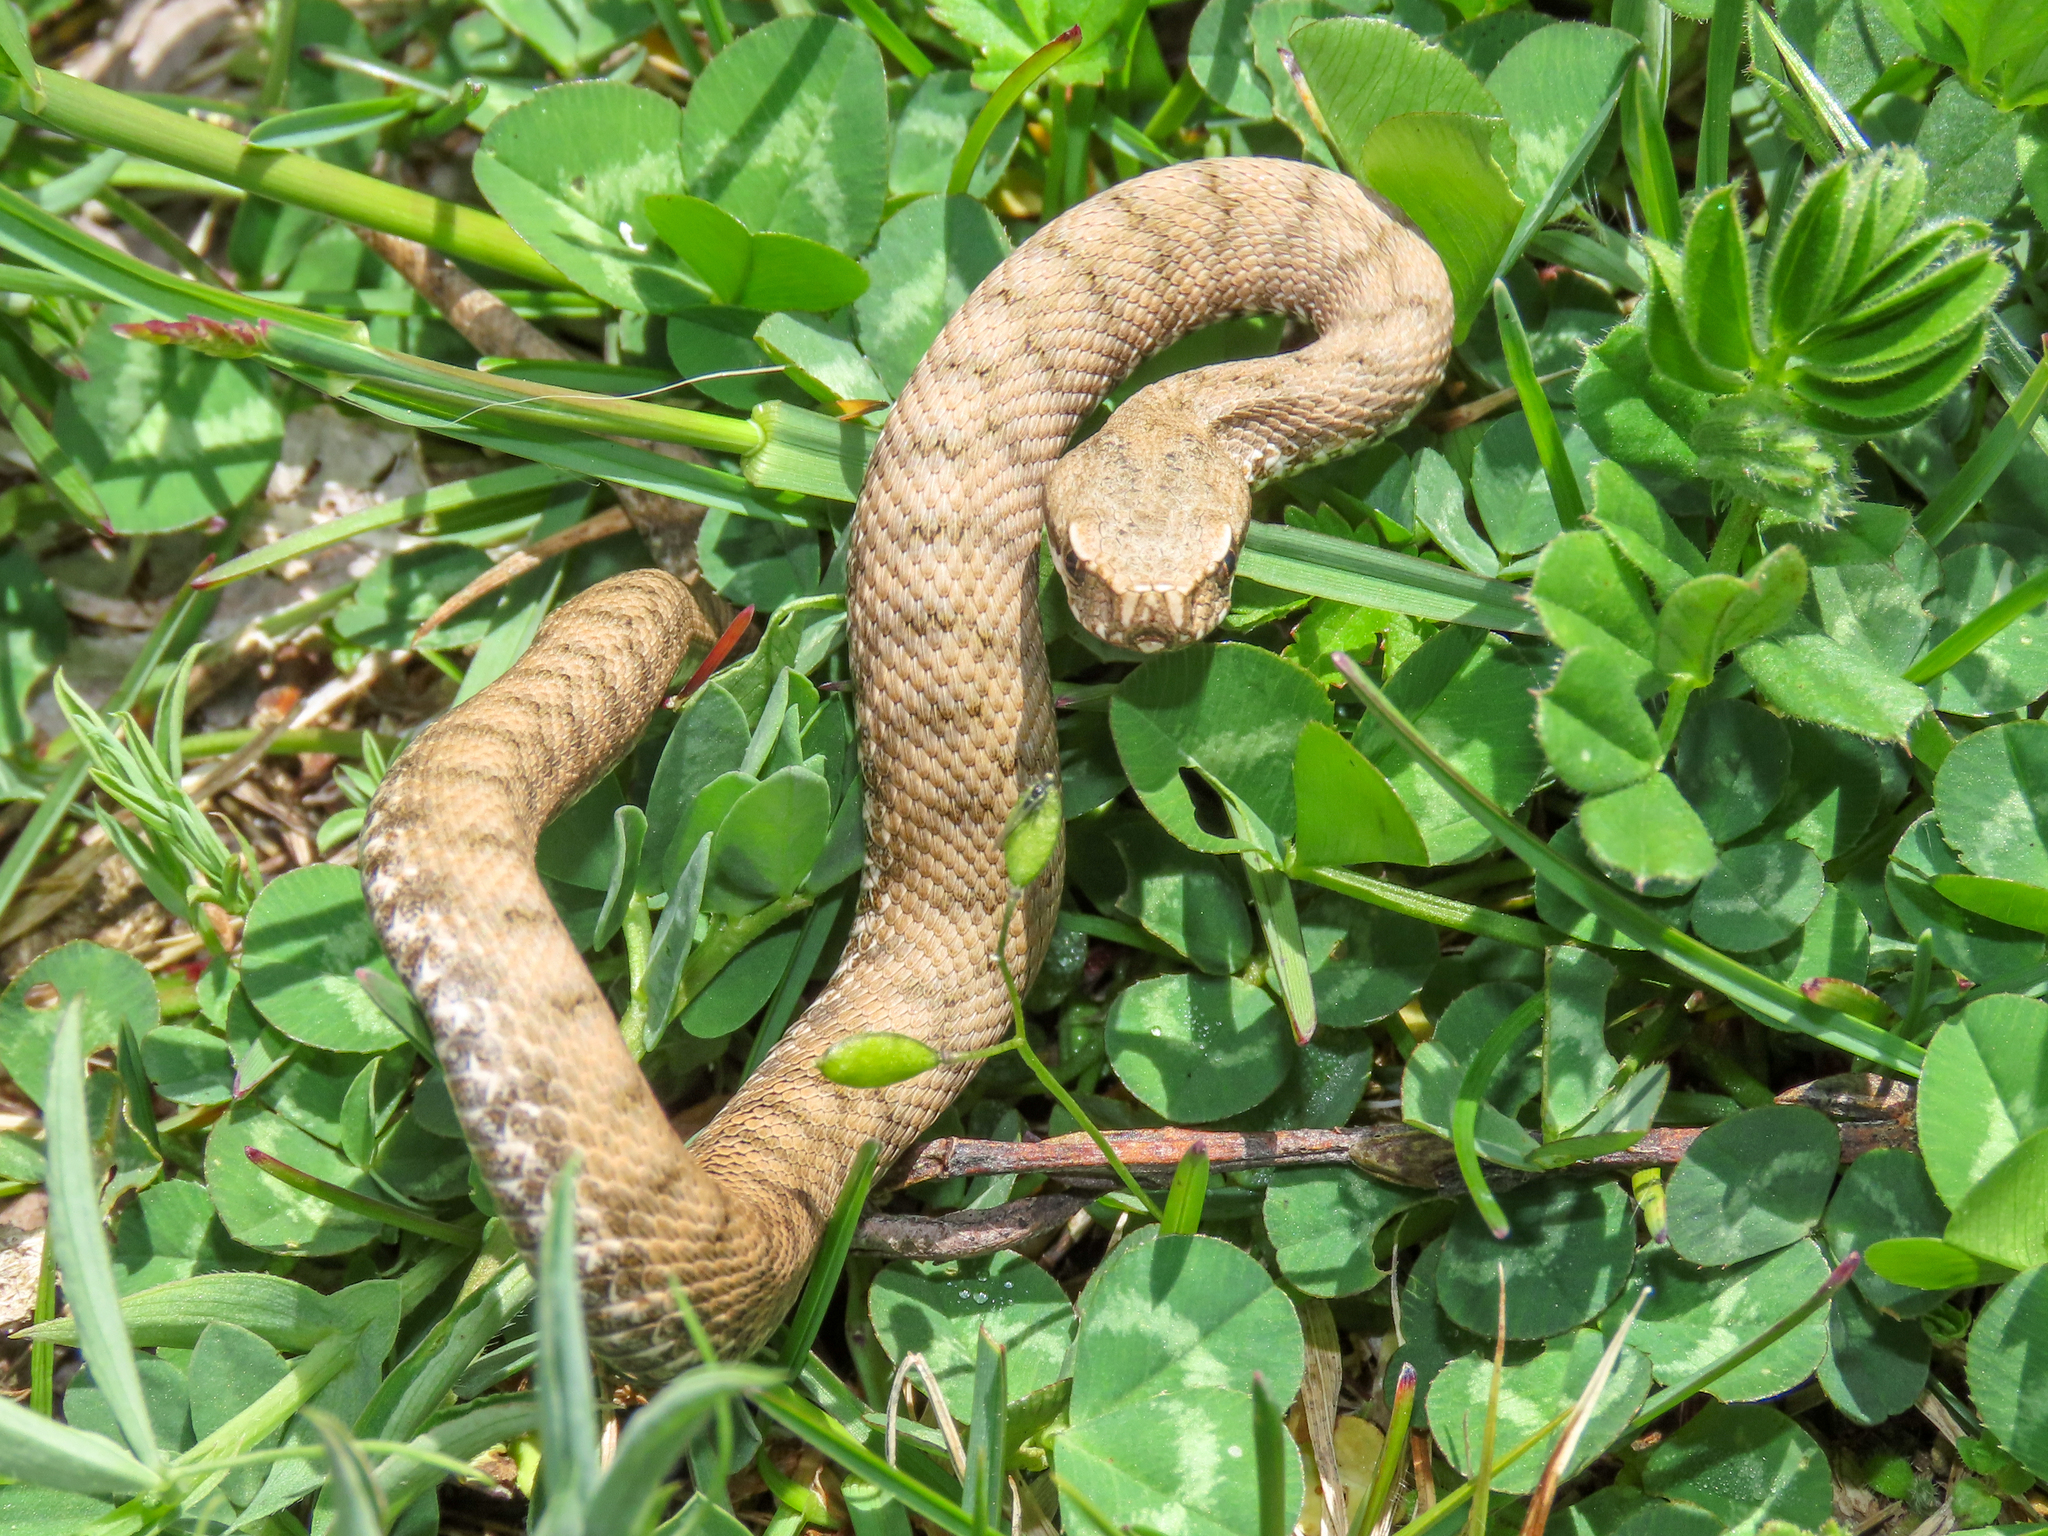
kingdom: Animalia
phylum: Chordata
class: Squamata
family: Viperidae
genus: Vipera
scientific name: Vipera aspis
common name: Asp viper
